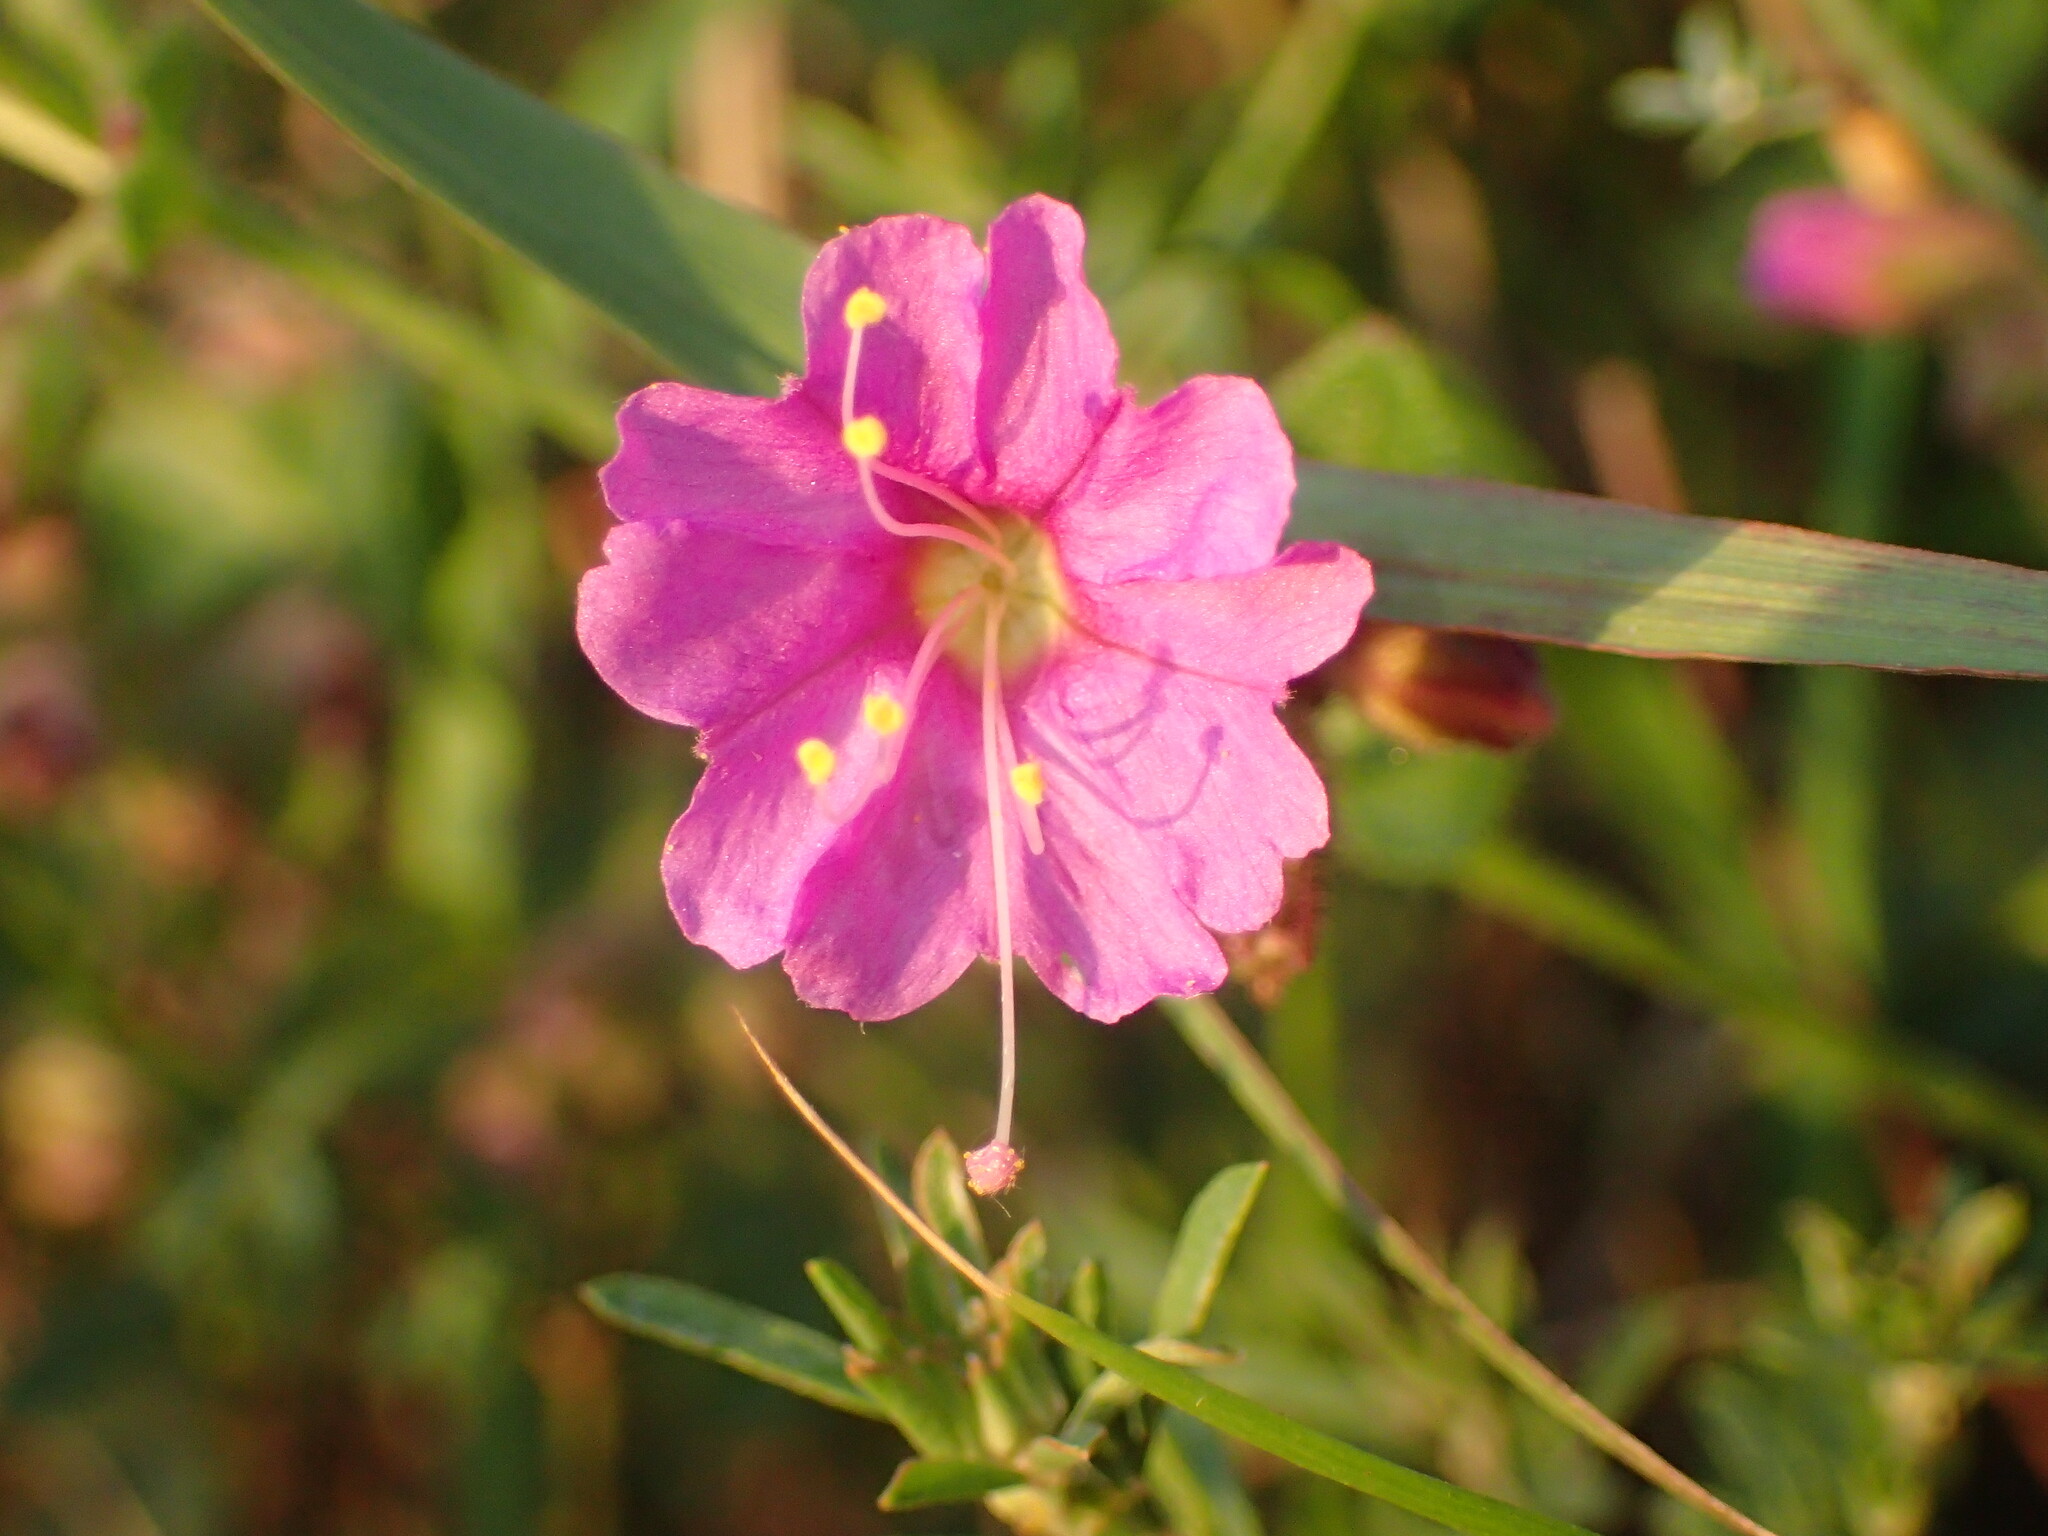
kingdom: Plantae
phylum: Tracheophyta
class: Magnoliopsida
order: Caryophyllales
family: Nyctaginaceae
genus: Mirabilis
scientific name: Mirabilis laevis
